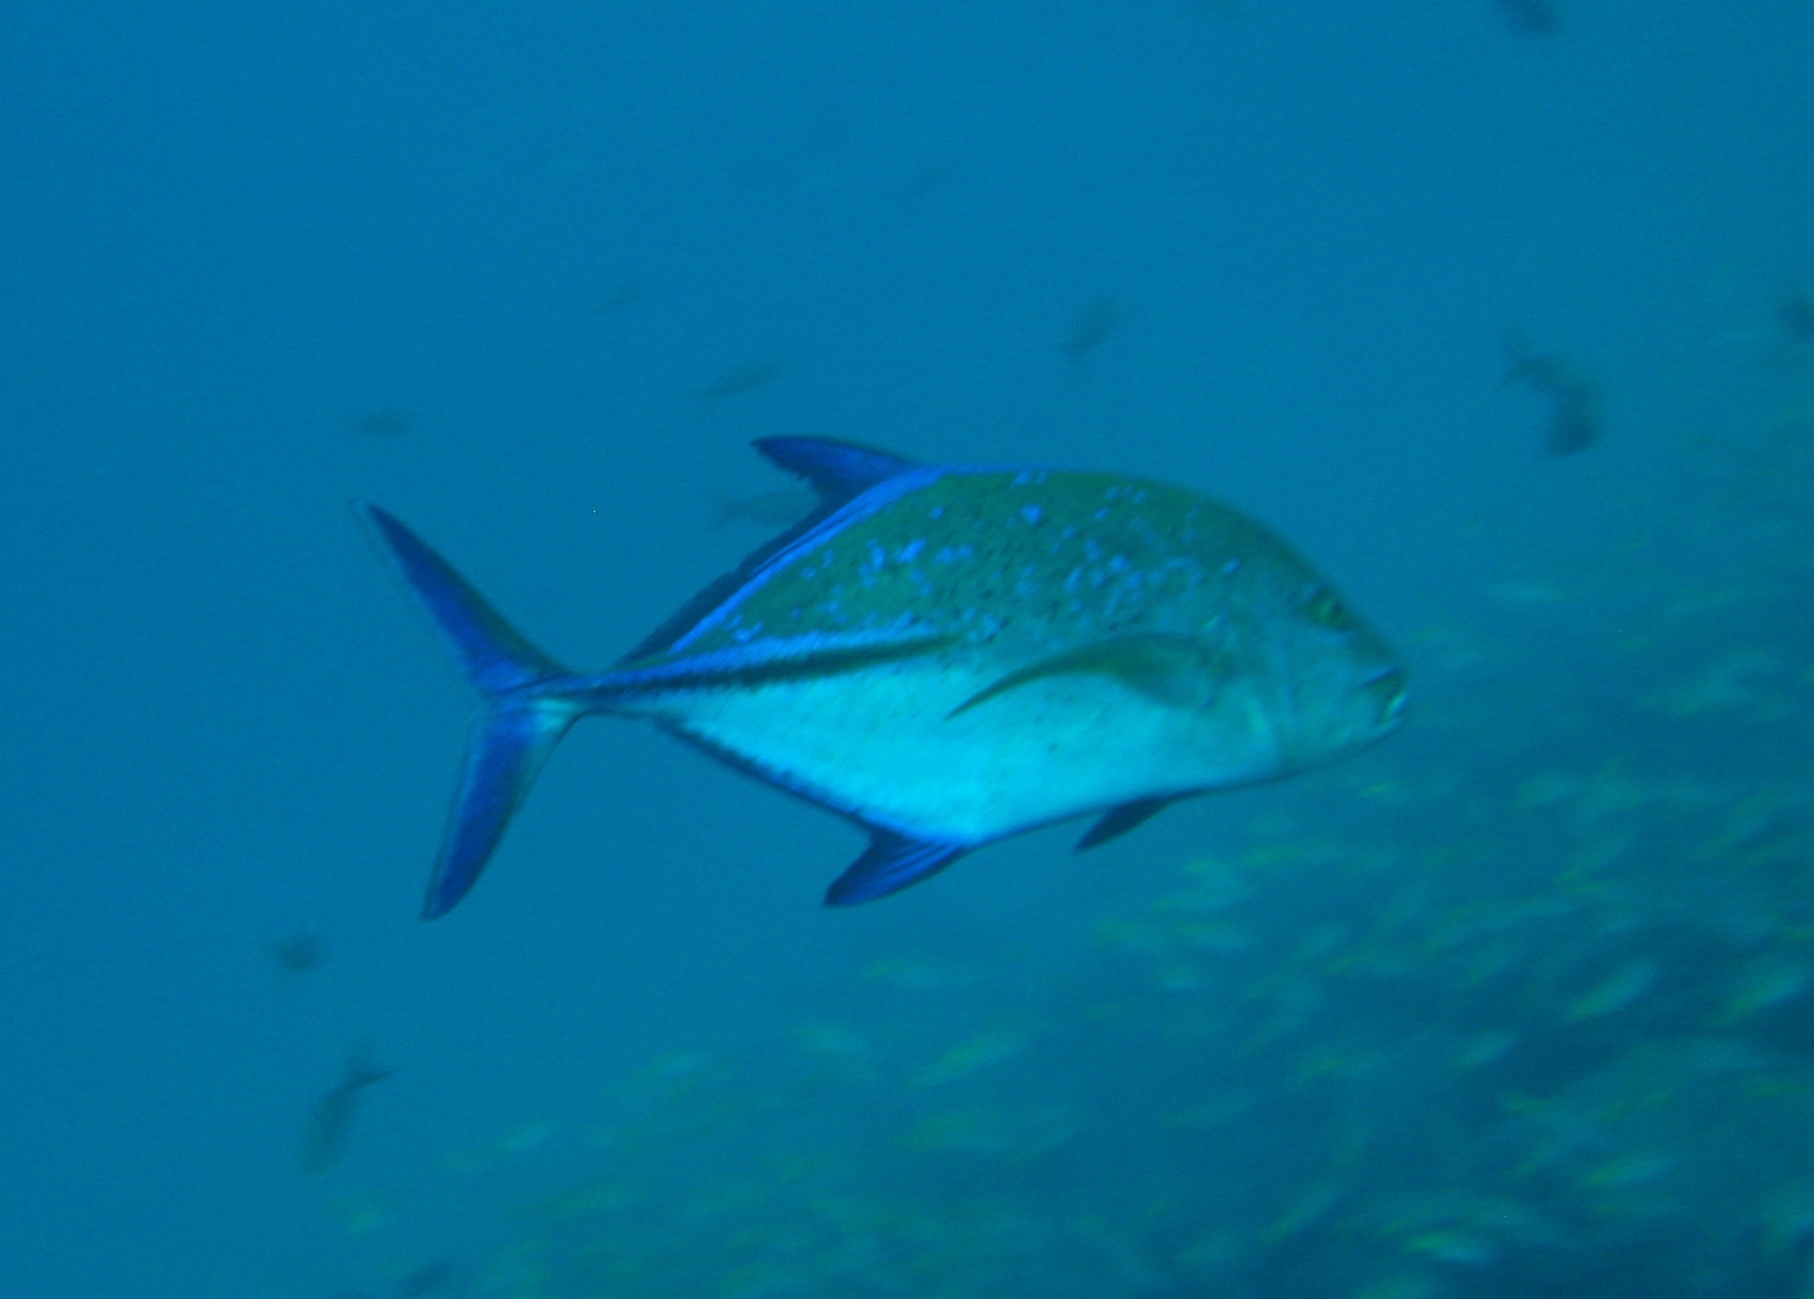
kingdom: Animalia
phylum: Chordata
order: Perciformes
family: Carangidae
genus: Caranx
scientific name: Caranx melampygus
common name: Bluefin trevally
